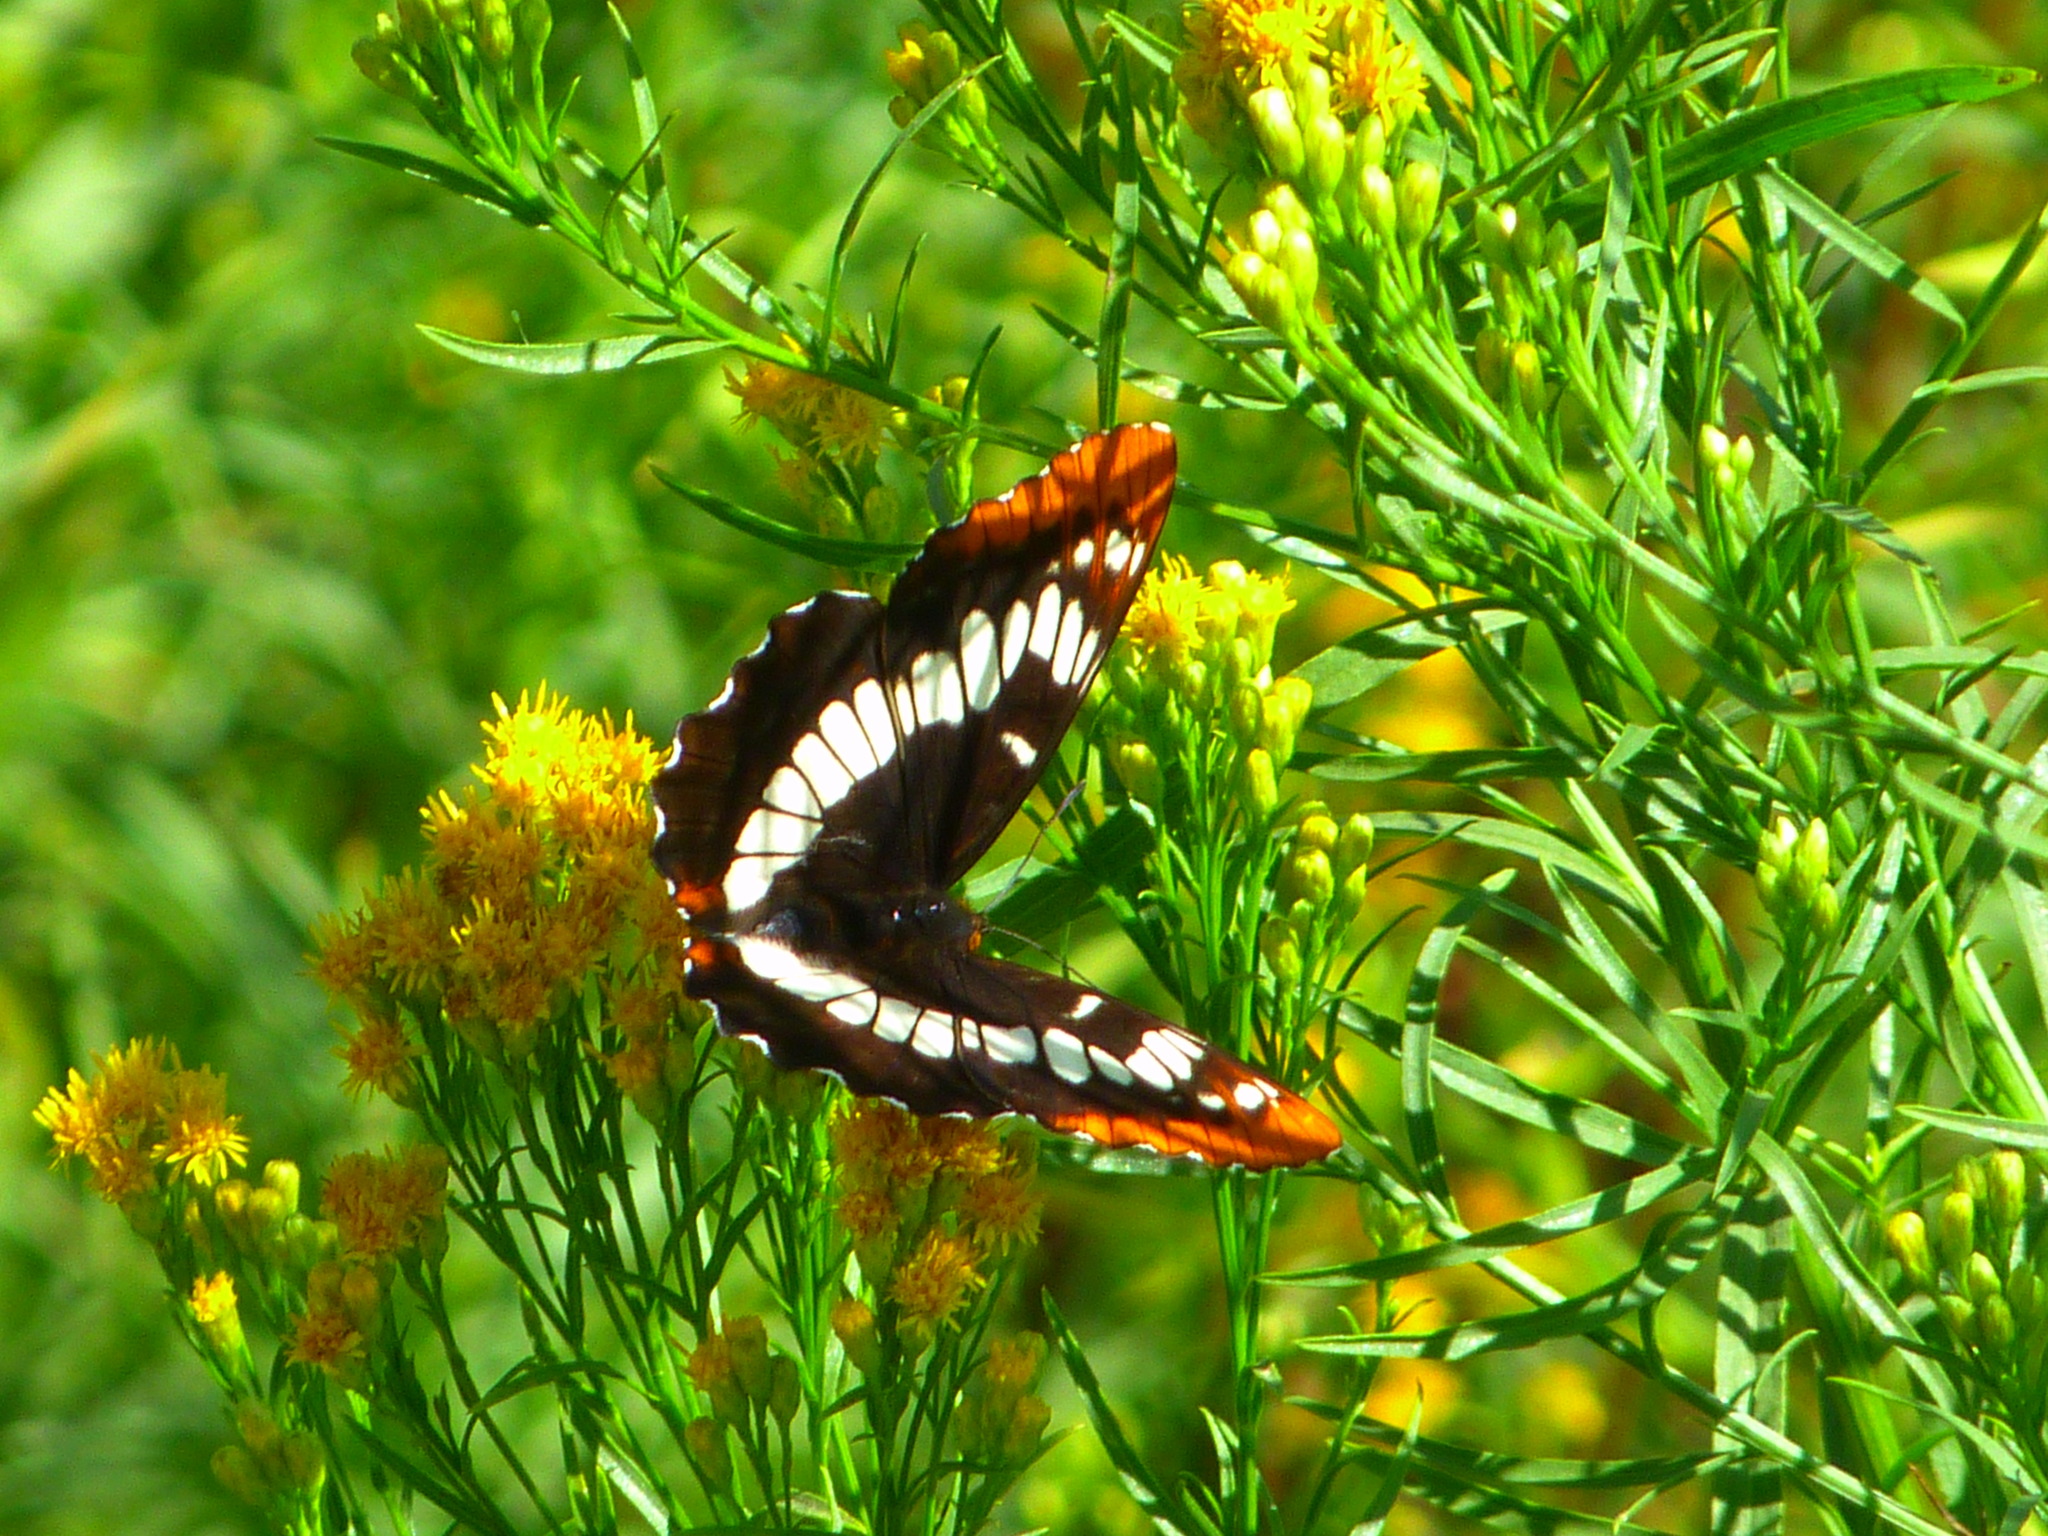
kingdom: Animalia
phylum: Arthropoda
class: Insecta
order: Lepidoptera
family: Nymphalidae
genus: Limenitis
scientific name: Limenitis lorquini
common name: Lorquin's admiral
